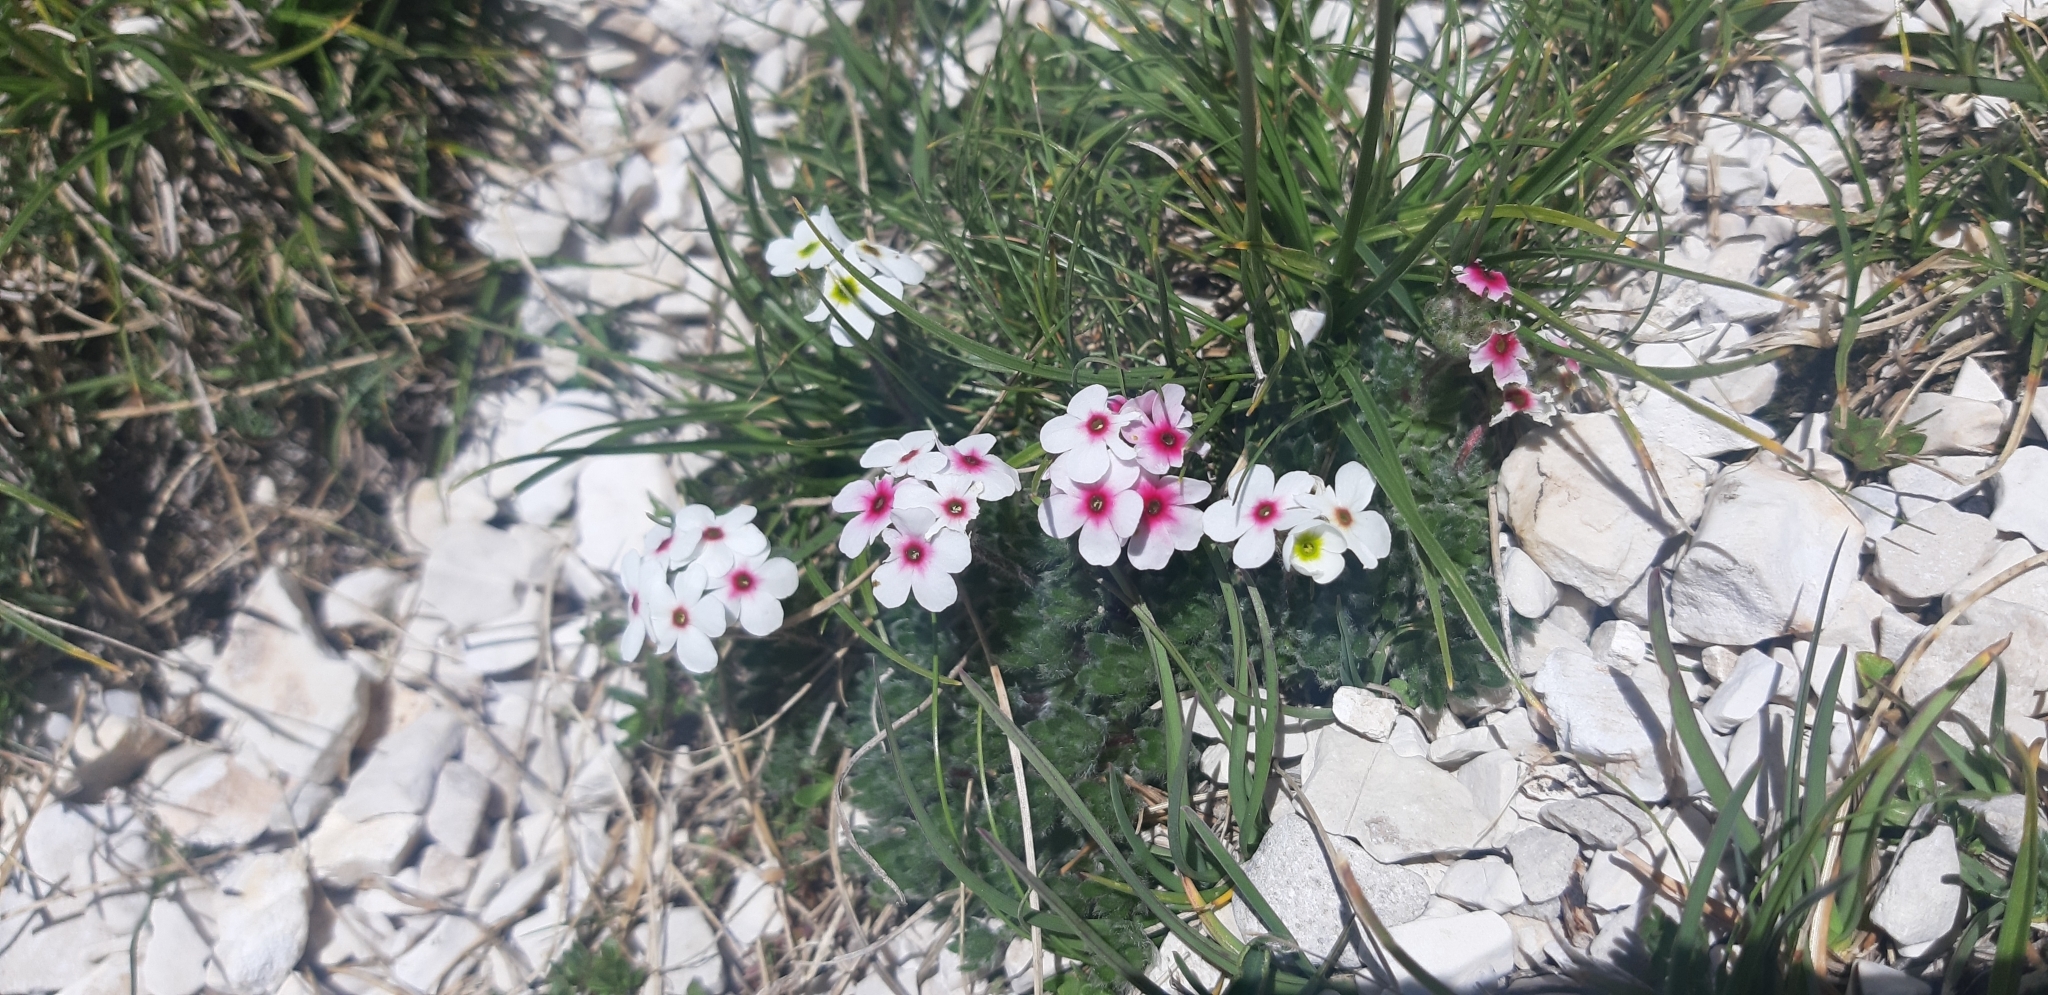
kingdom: Plantae
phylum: Tracheophyta
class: Magnoliopsida
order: Ericales
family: Primulaceae
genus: Androsace
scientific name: Androsace villosa
